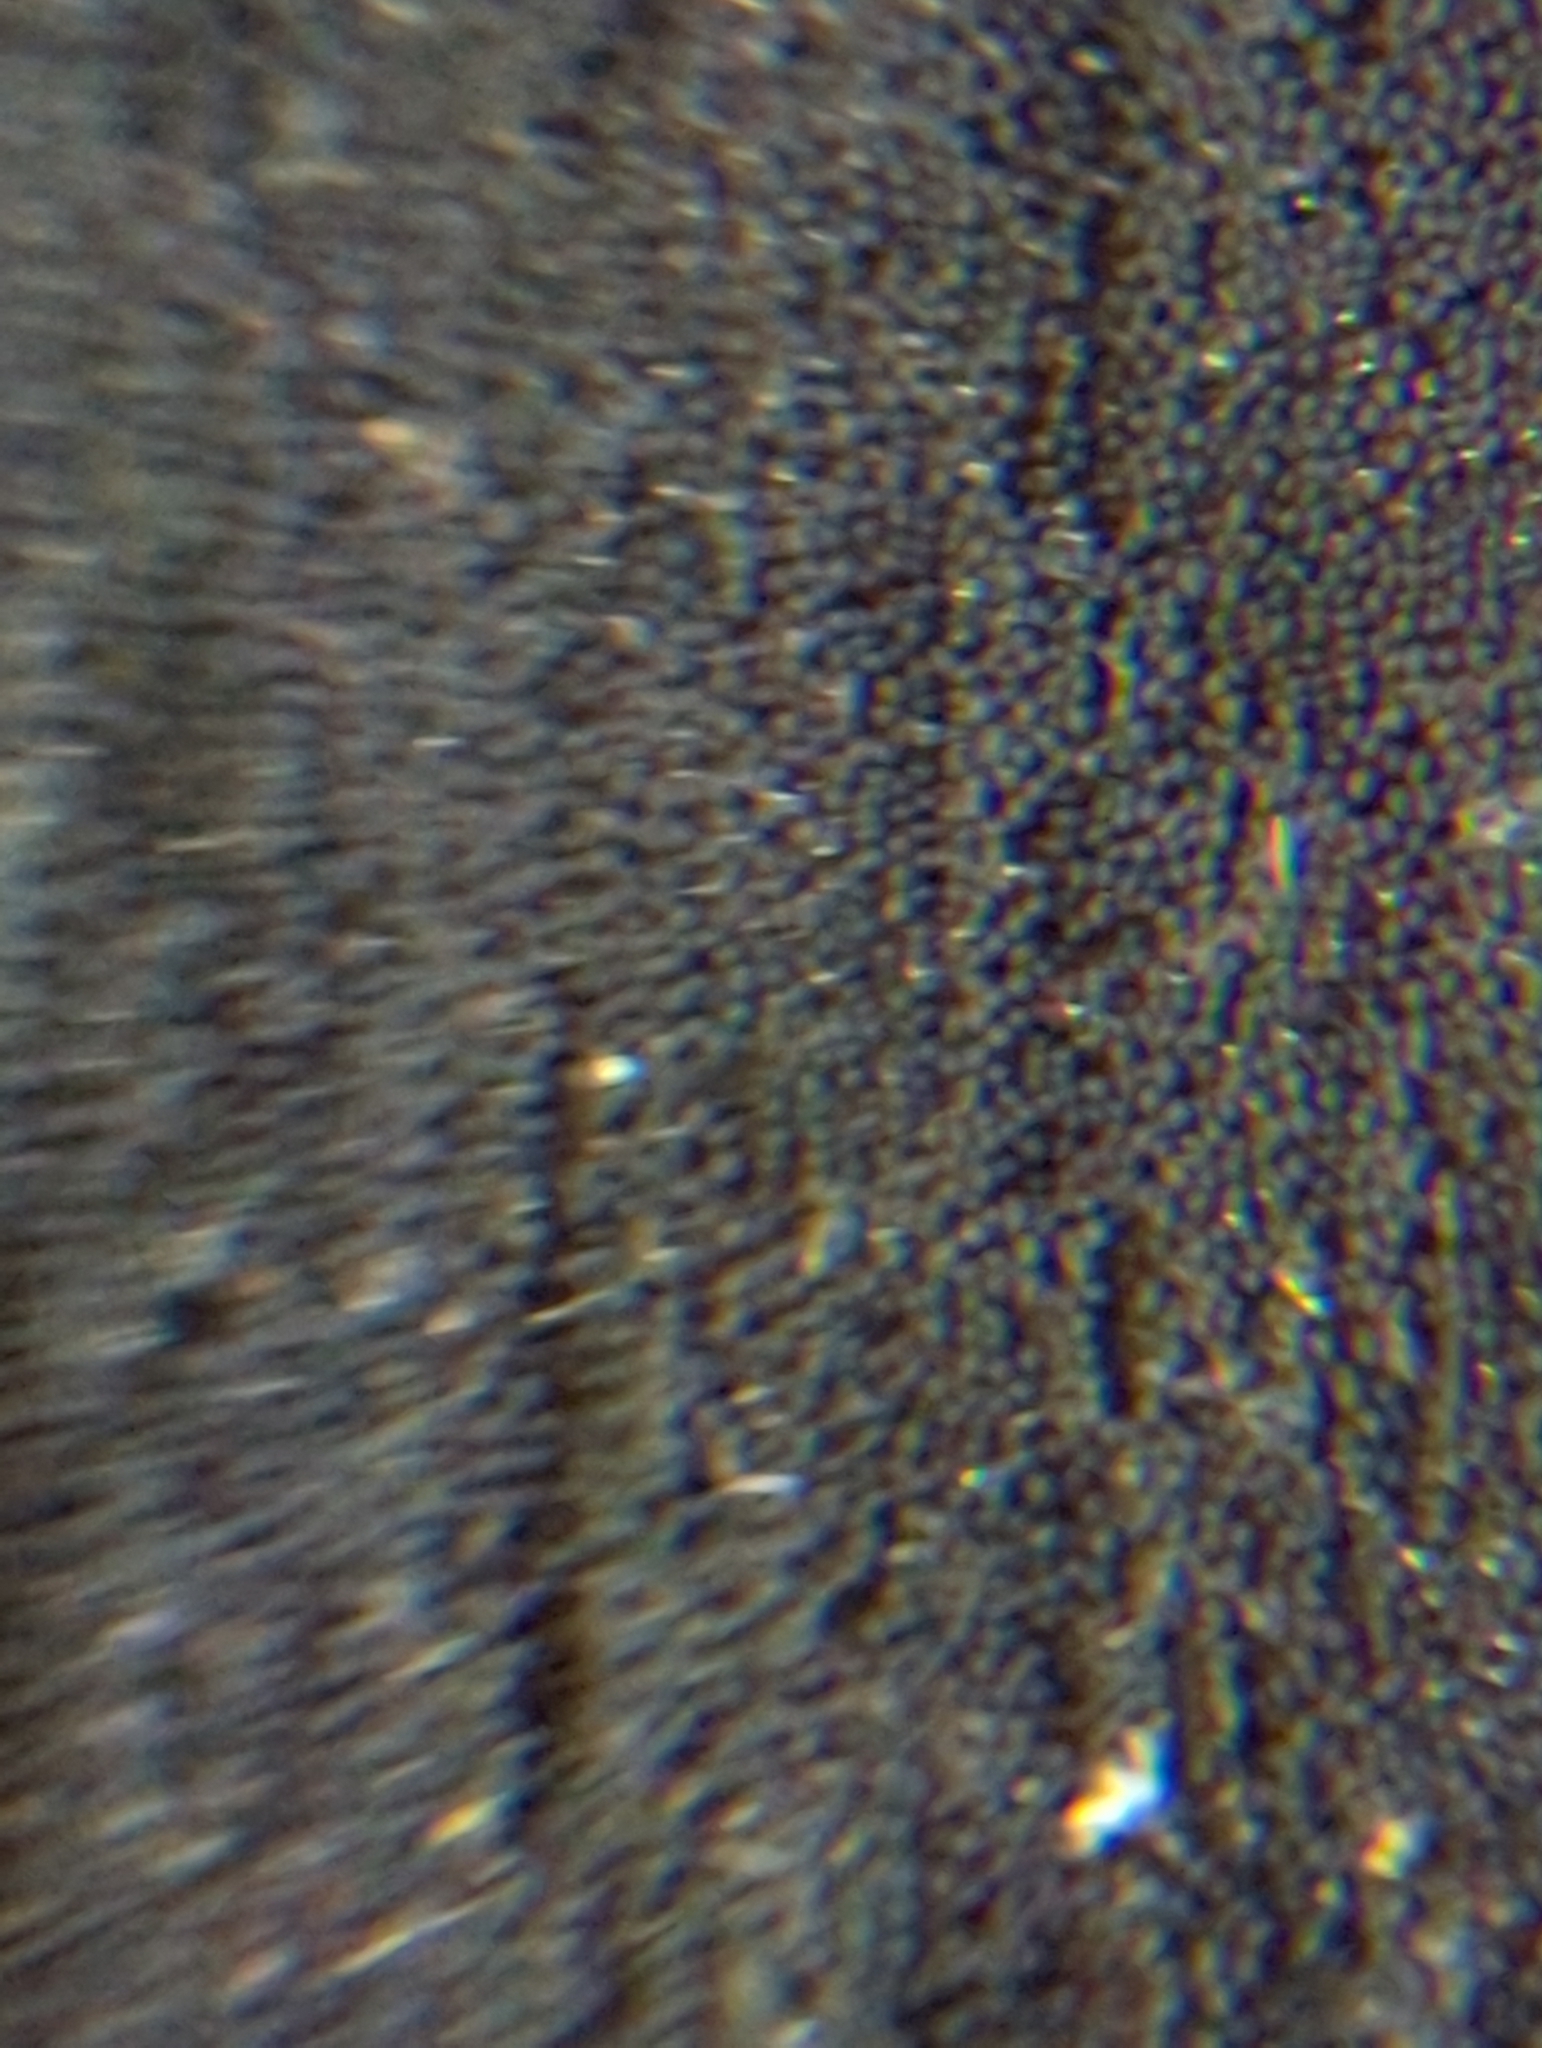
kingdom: Fungi
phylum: Ascomycota
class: Dothideomycetes
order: Pleosporales
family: Anteagloniaceae
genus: Anteaglonium
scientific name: Anteaglonium abbreviatum
